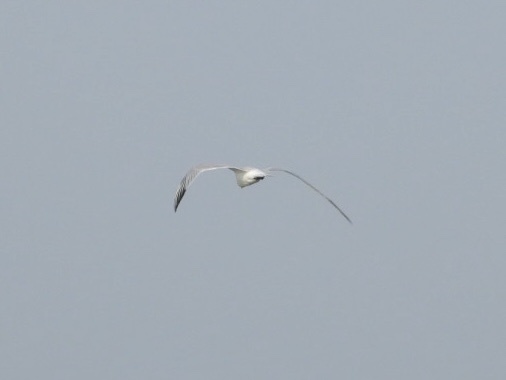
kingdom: Animalia
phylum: Chordata
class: Aves
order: Charadriiformes
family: Laridae
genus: Thalasseus
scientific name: Thalasseus maximus
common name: Royal tern
